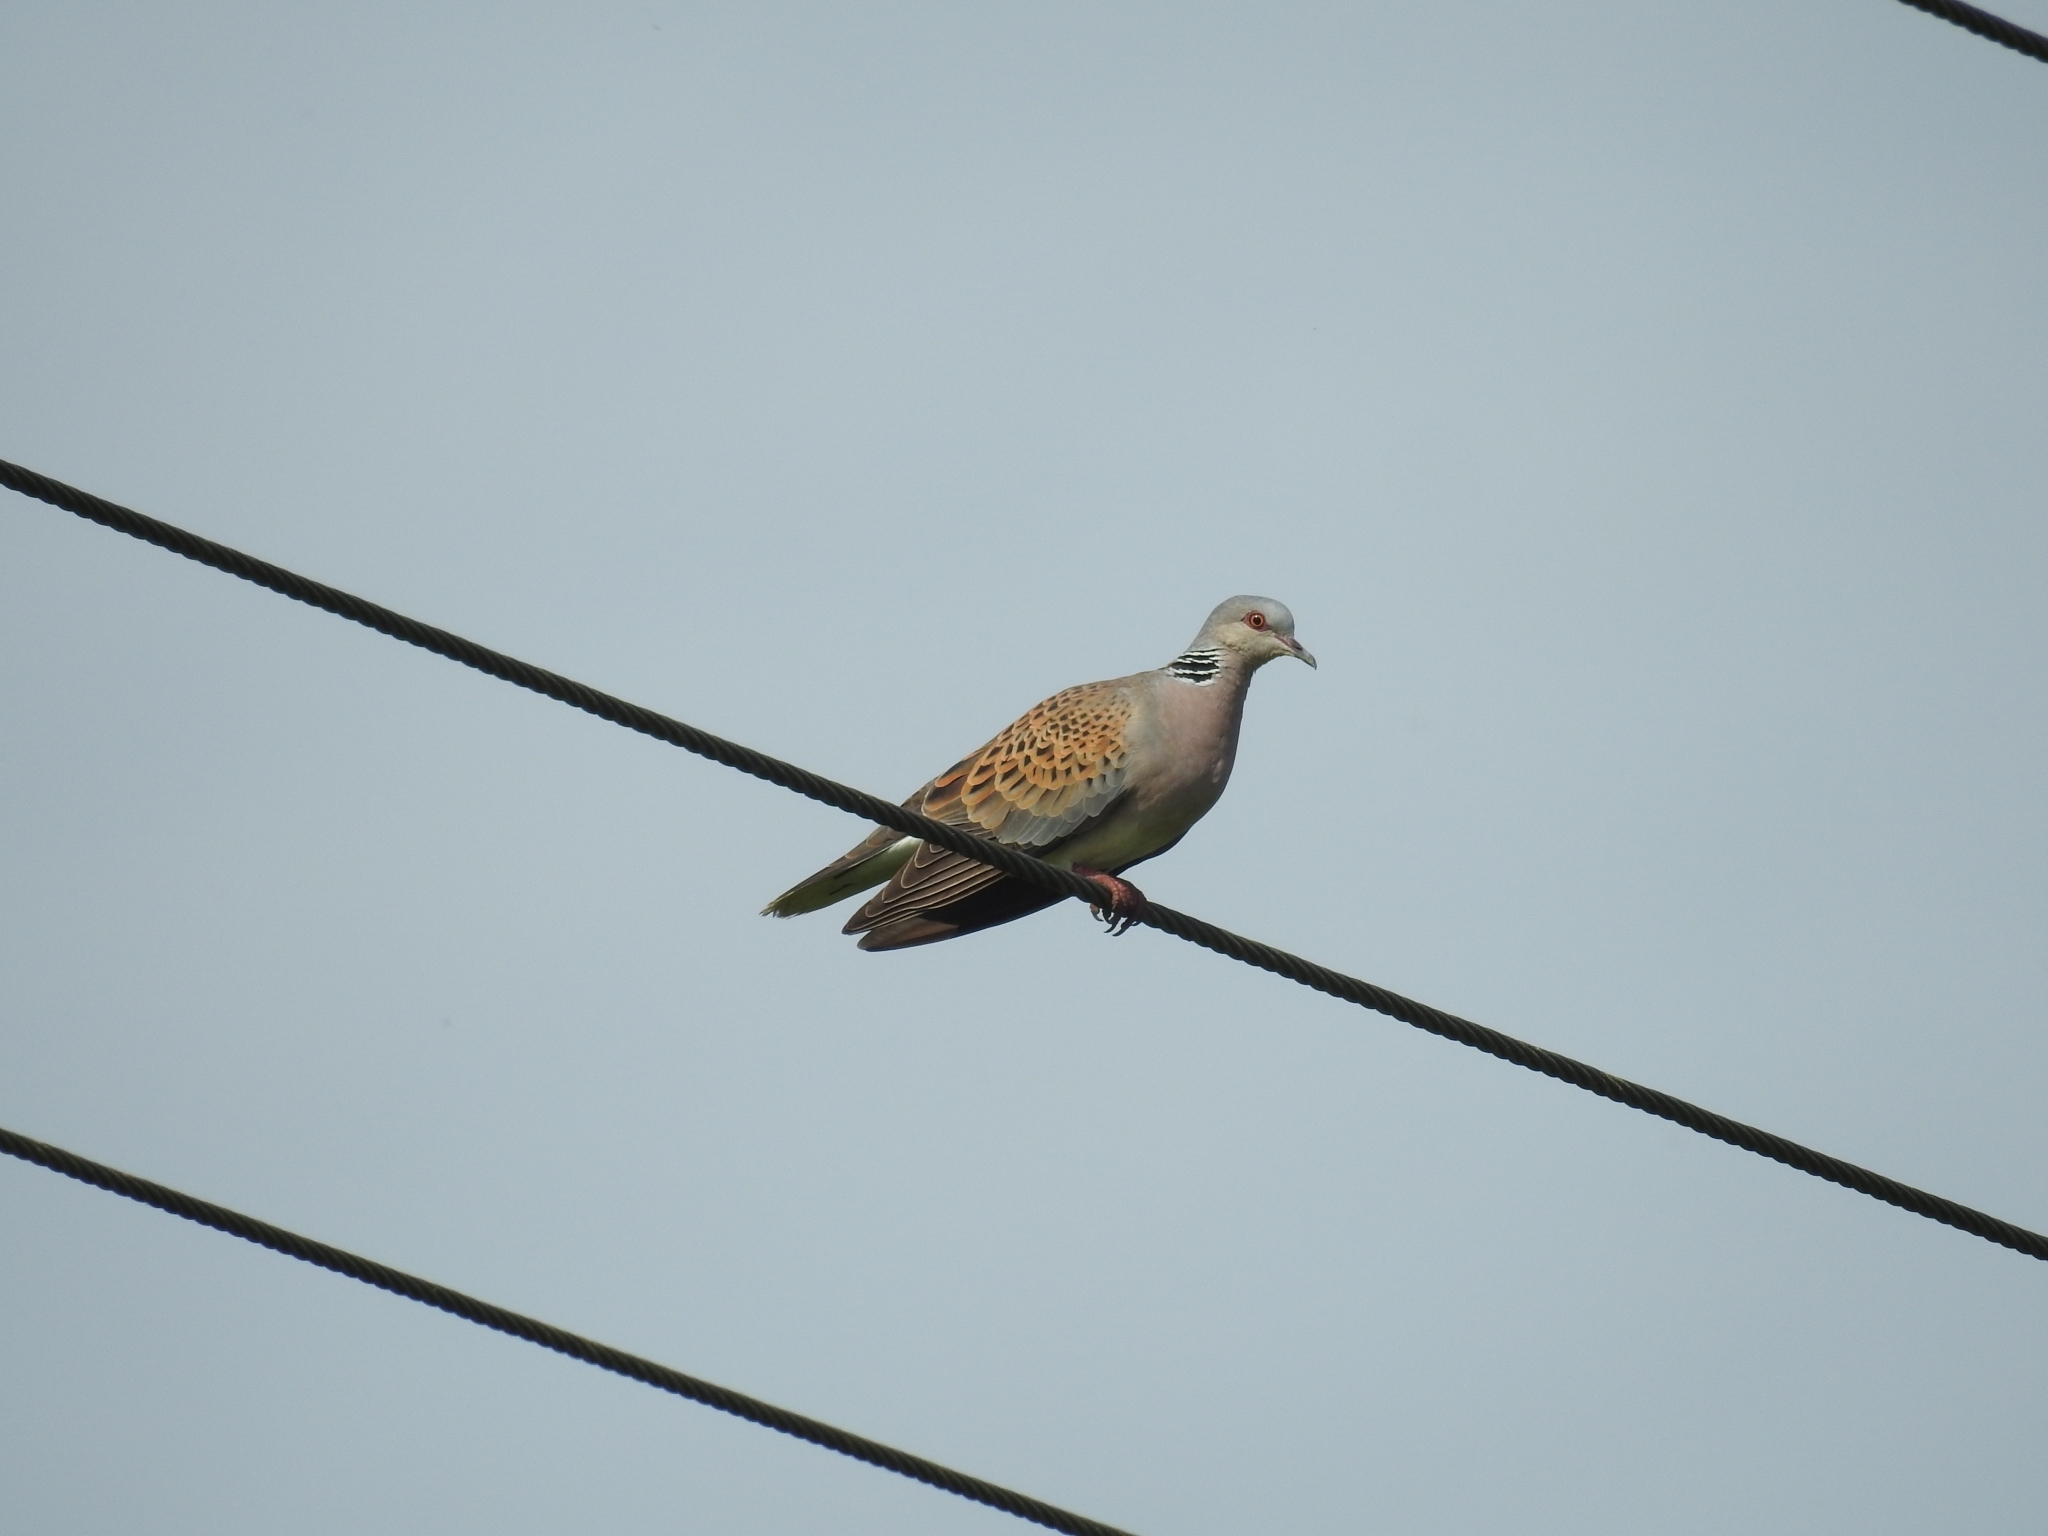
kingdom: Animalia
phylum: Chordata
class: Aves
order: Columbiformes
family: Columbidae
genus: Streptopelia
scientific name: Streptopelia turtur
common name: European turtle dove
